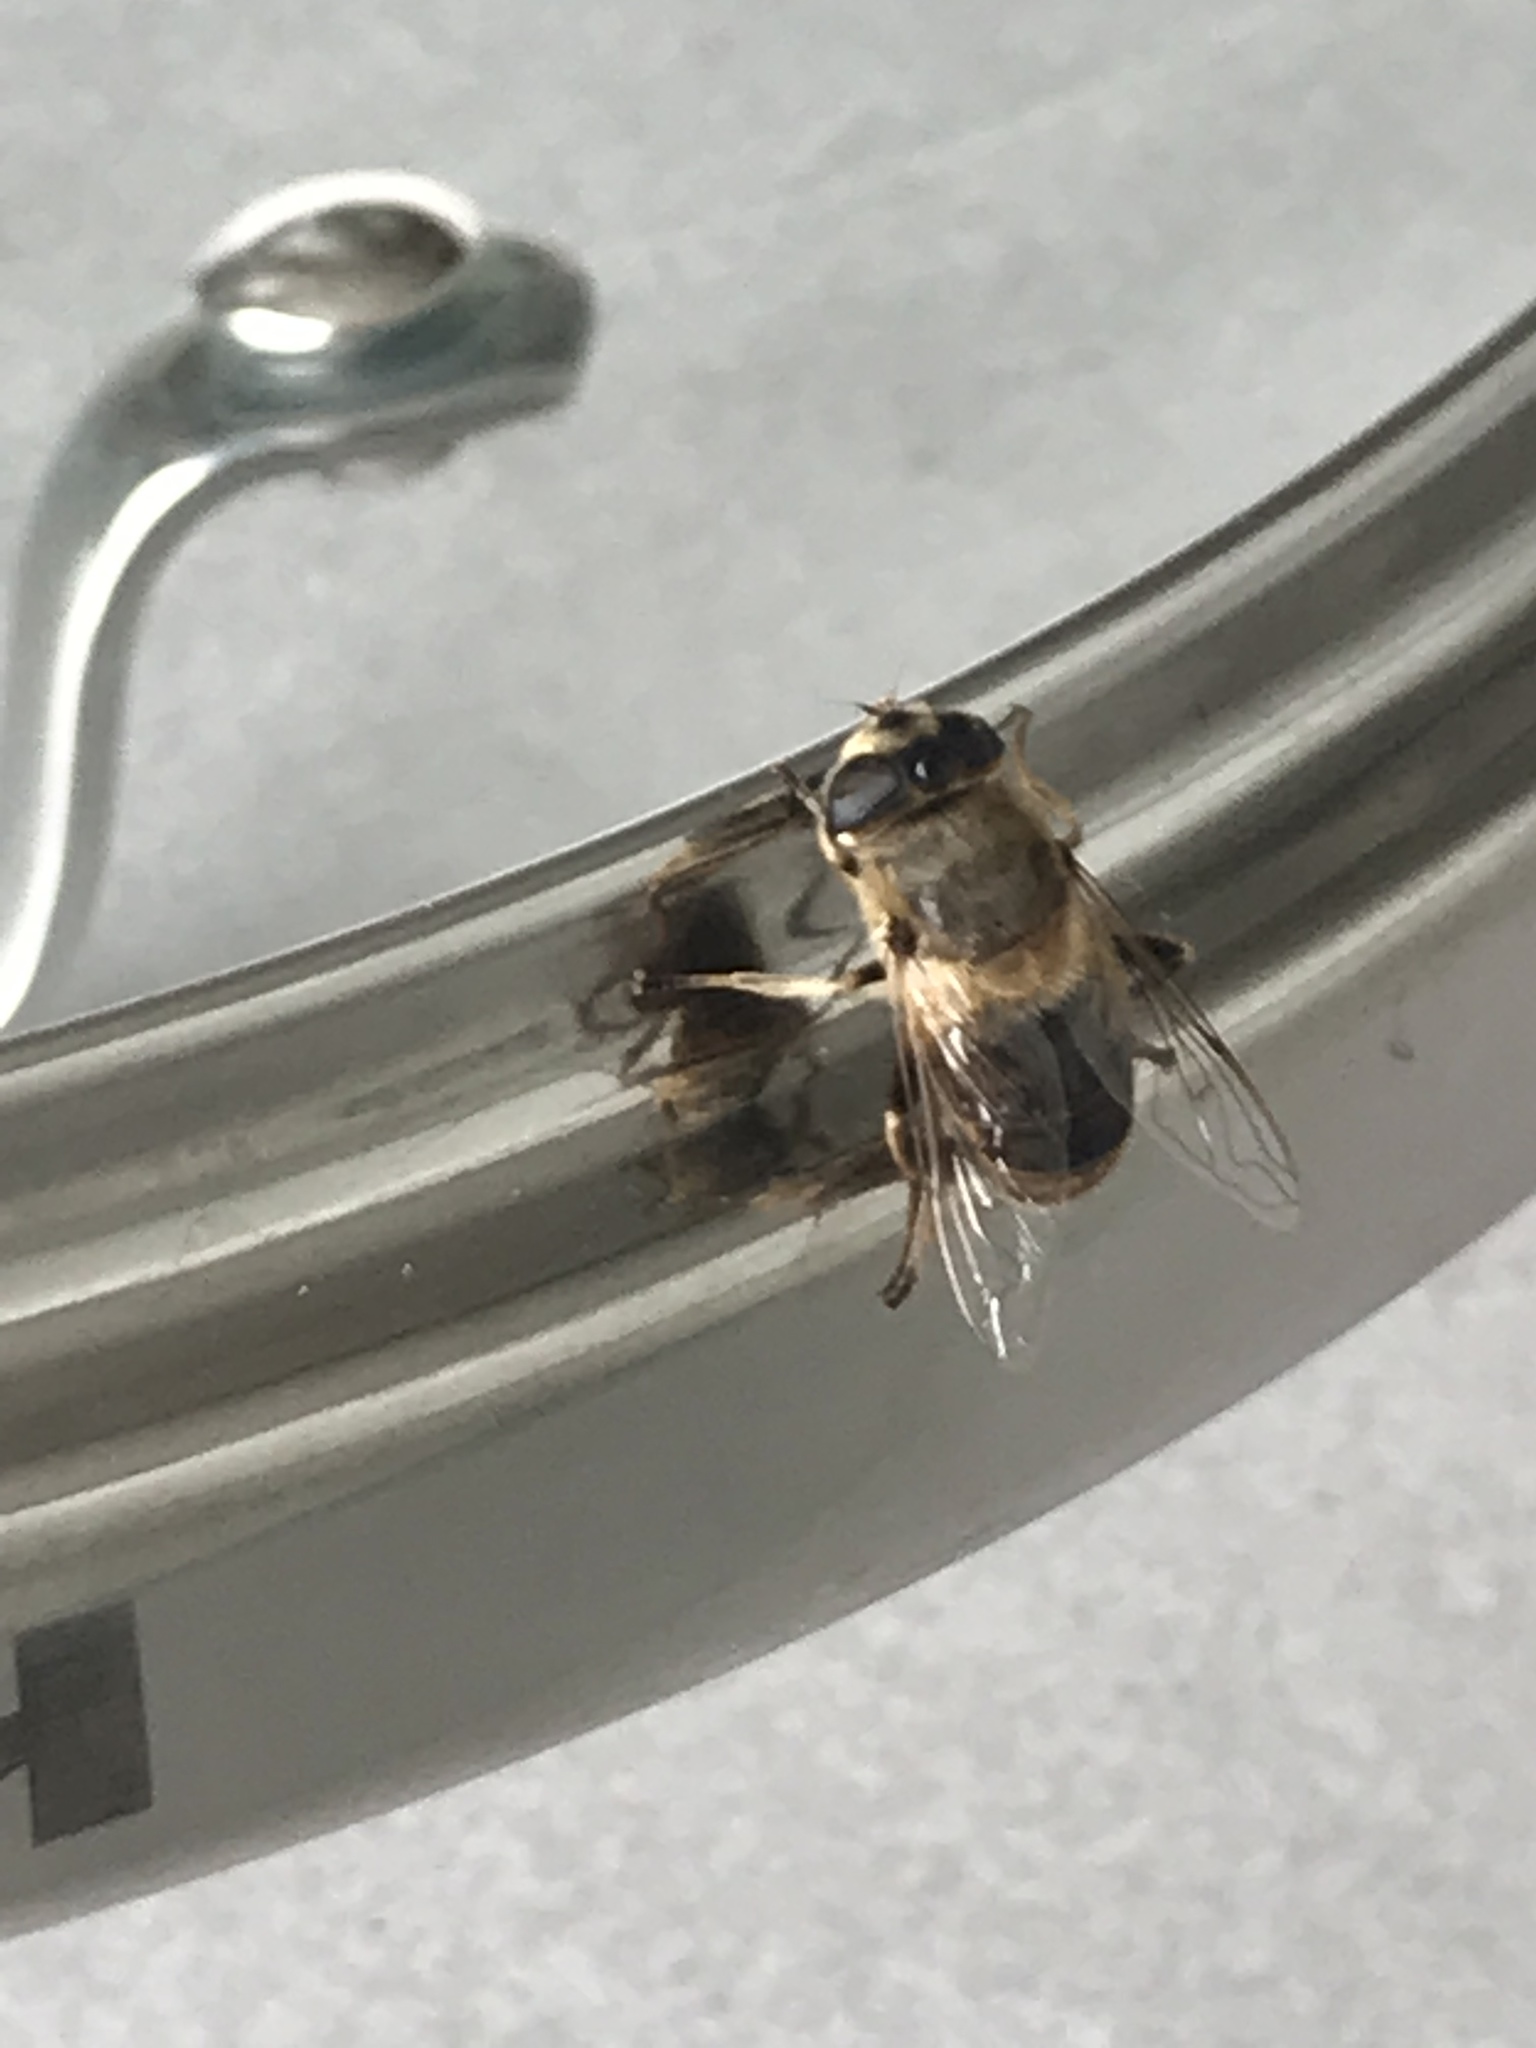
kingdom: Animalia
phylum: Arthropoda
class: Insecta
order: Diptera
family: Syrphidae
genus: Eristalis
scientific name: Eristalis tenax
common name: Drone fly
